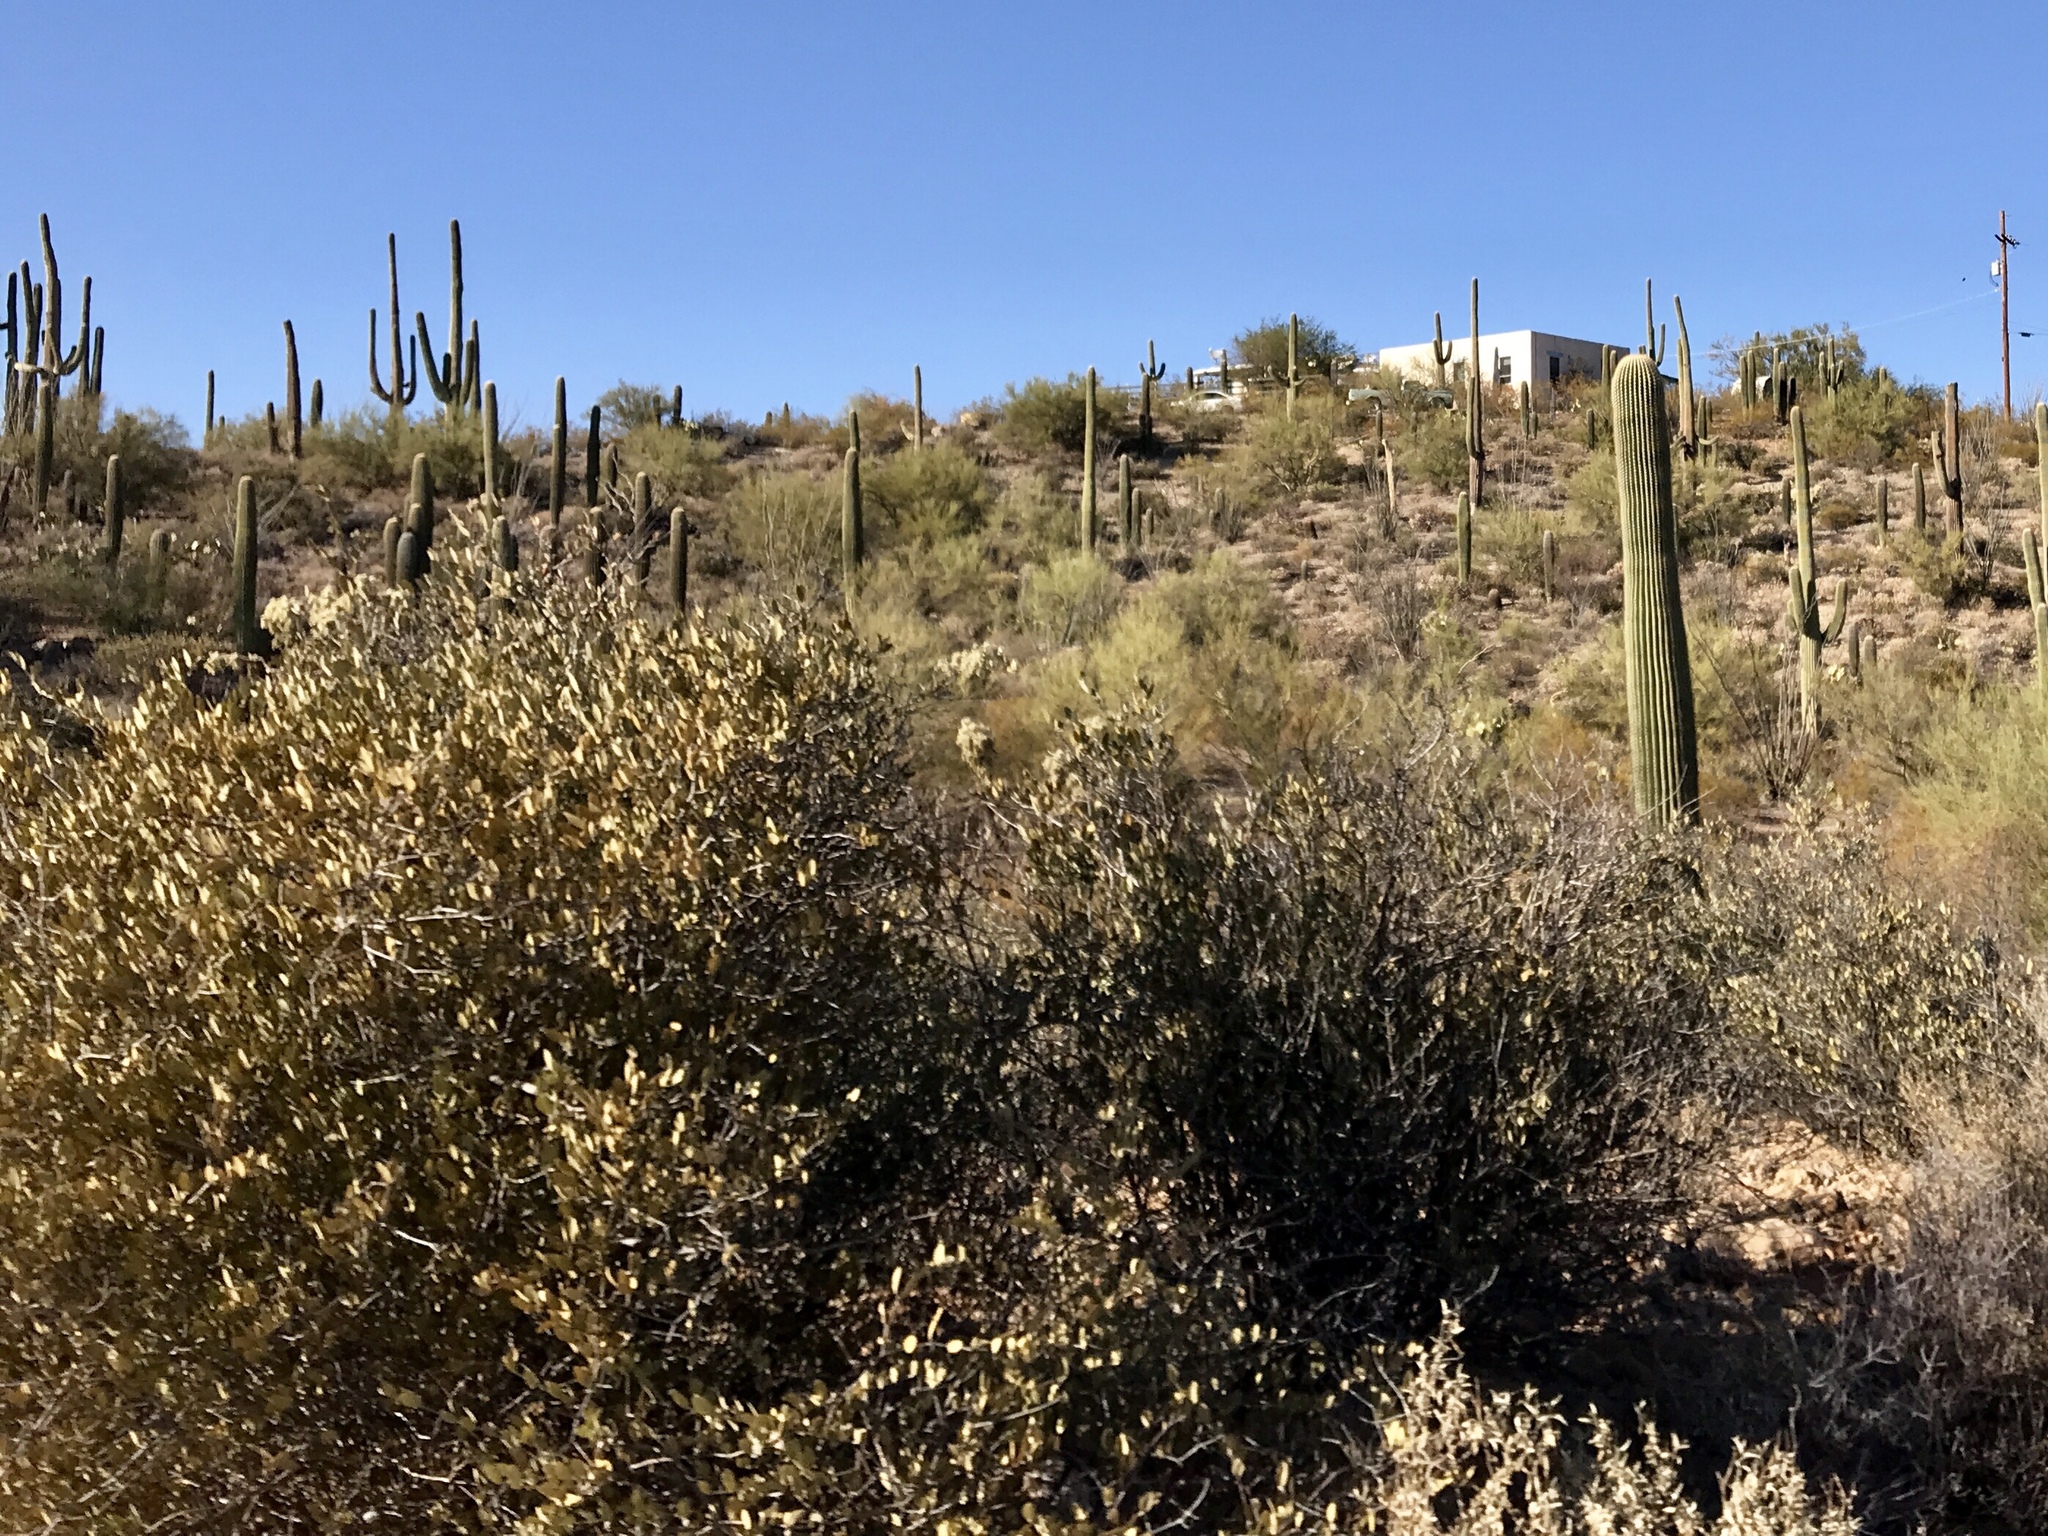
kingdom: Plantae
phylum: Tracheophyta
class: Magnoliopsida
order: Caryophyllales
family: Simmondsiaceae
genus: Simmondsia
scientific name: Simmondsia chinensis
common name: Jojoba
